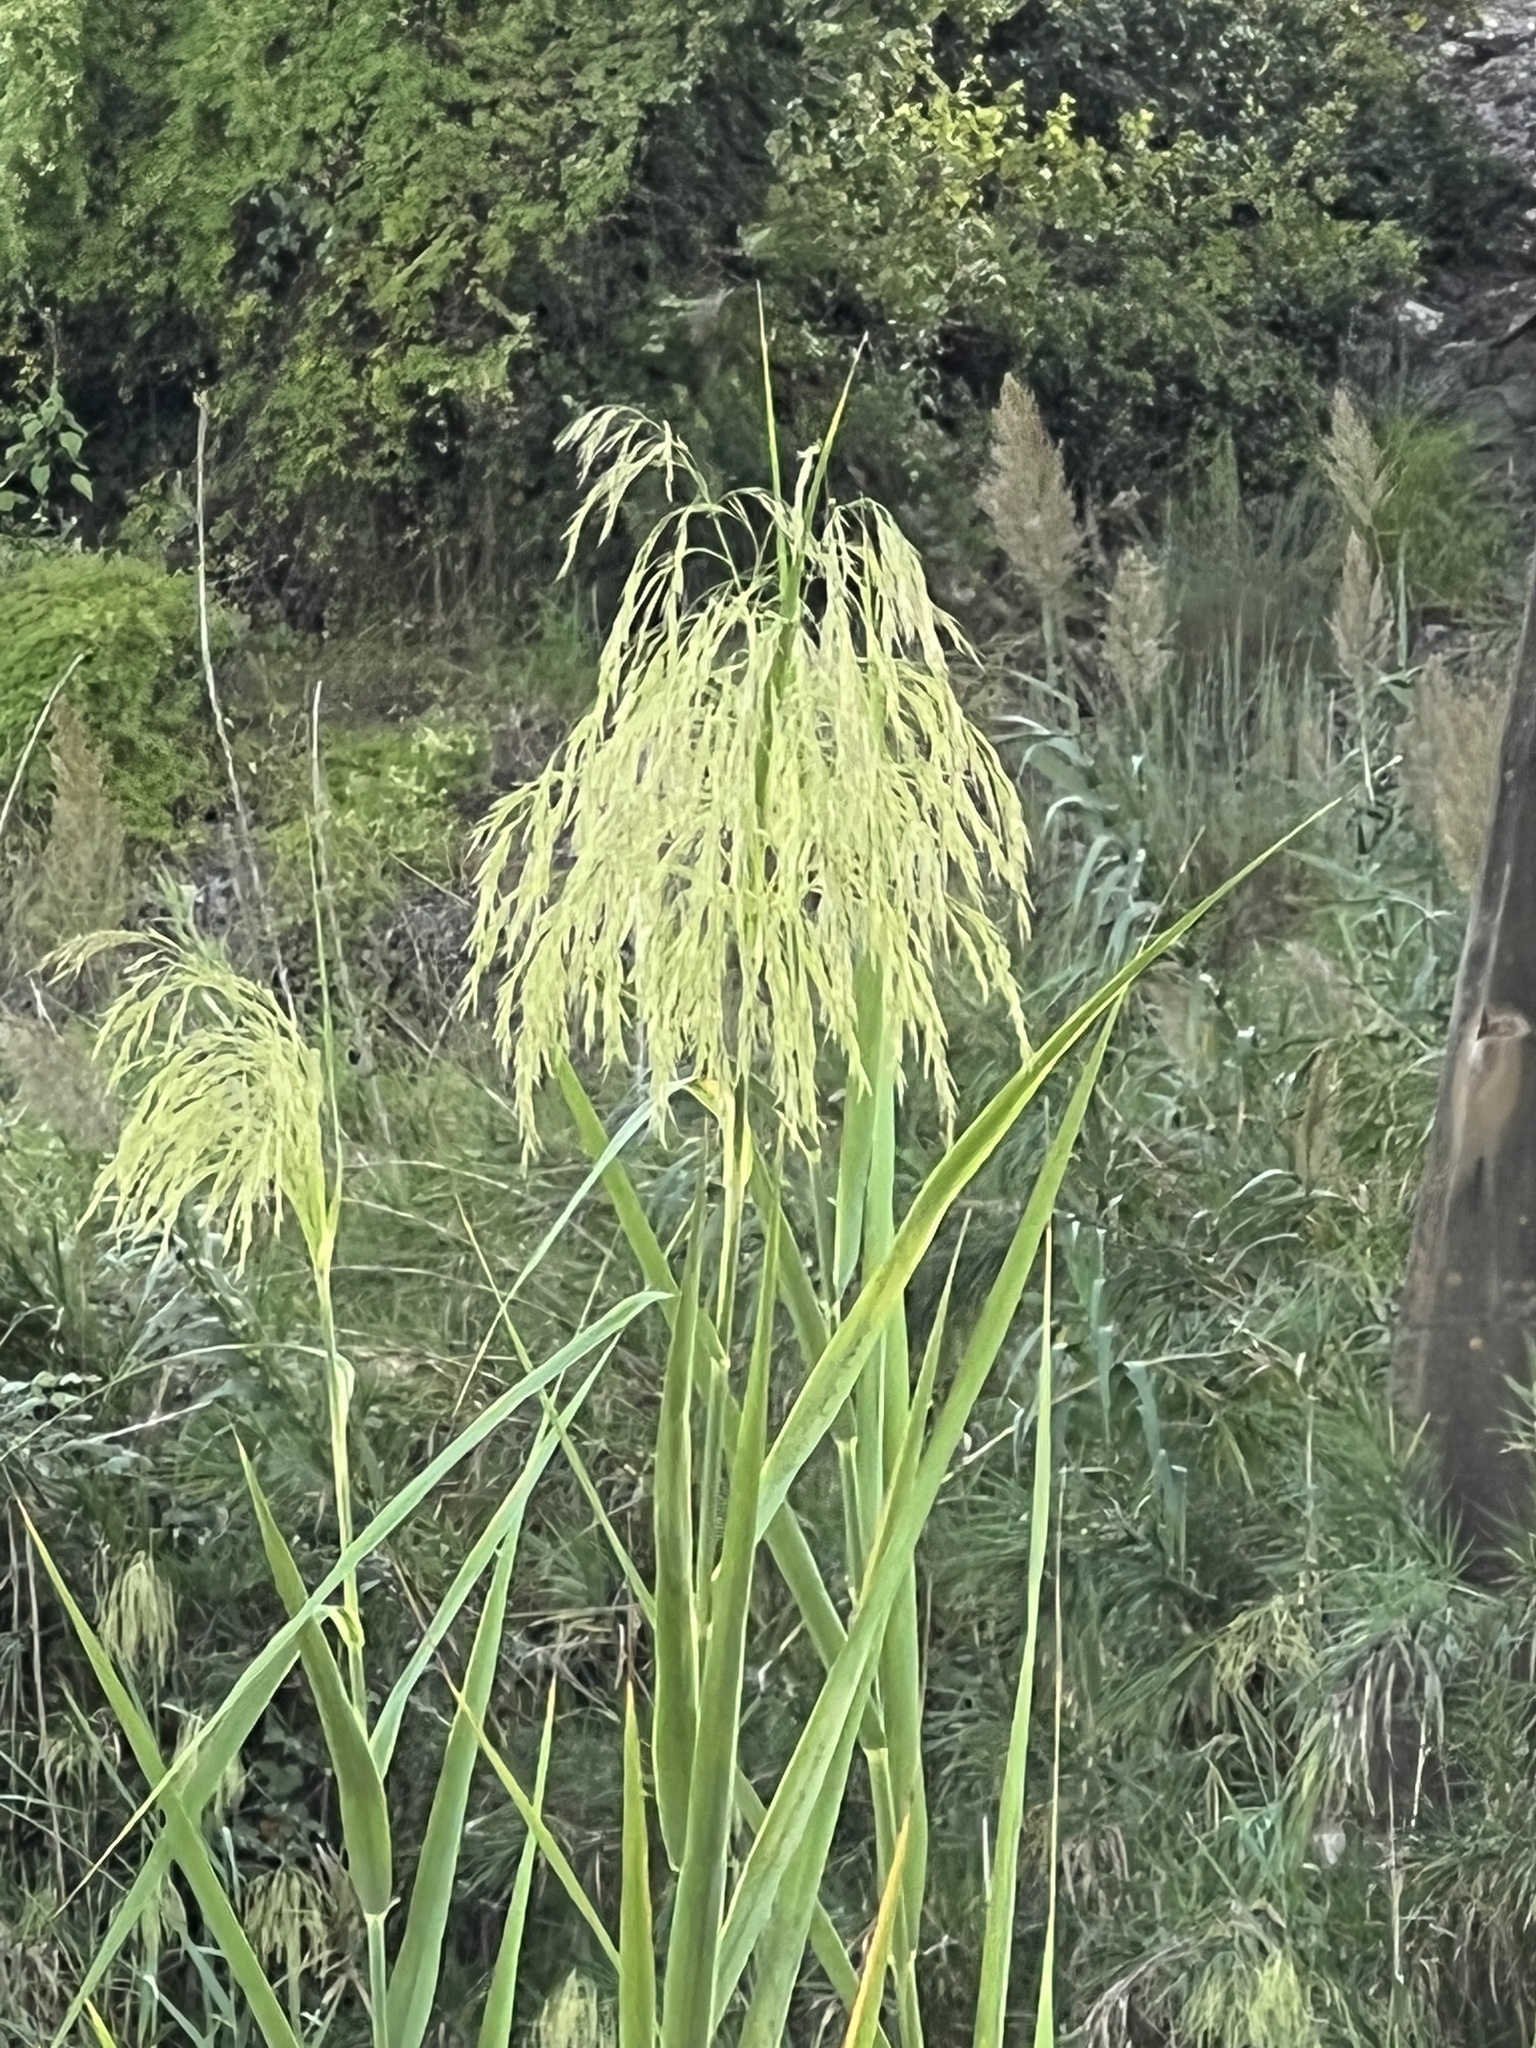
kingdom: Plantae
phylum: Tracheophyta
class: Liliopsida
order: Poales
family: Poaceae
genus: Phragmites
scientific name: Phragmites australis
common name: Common reed
